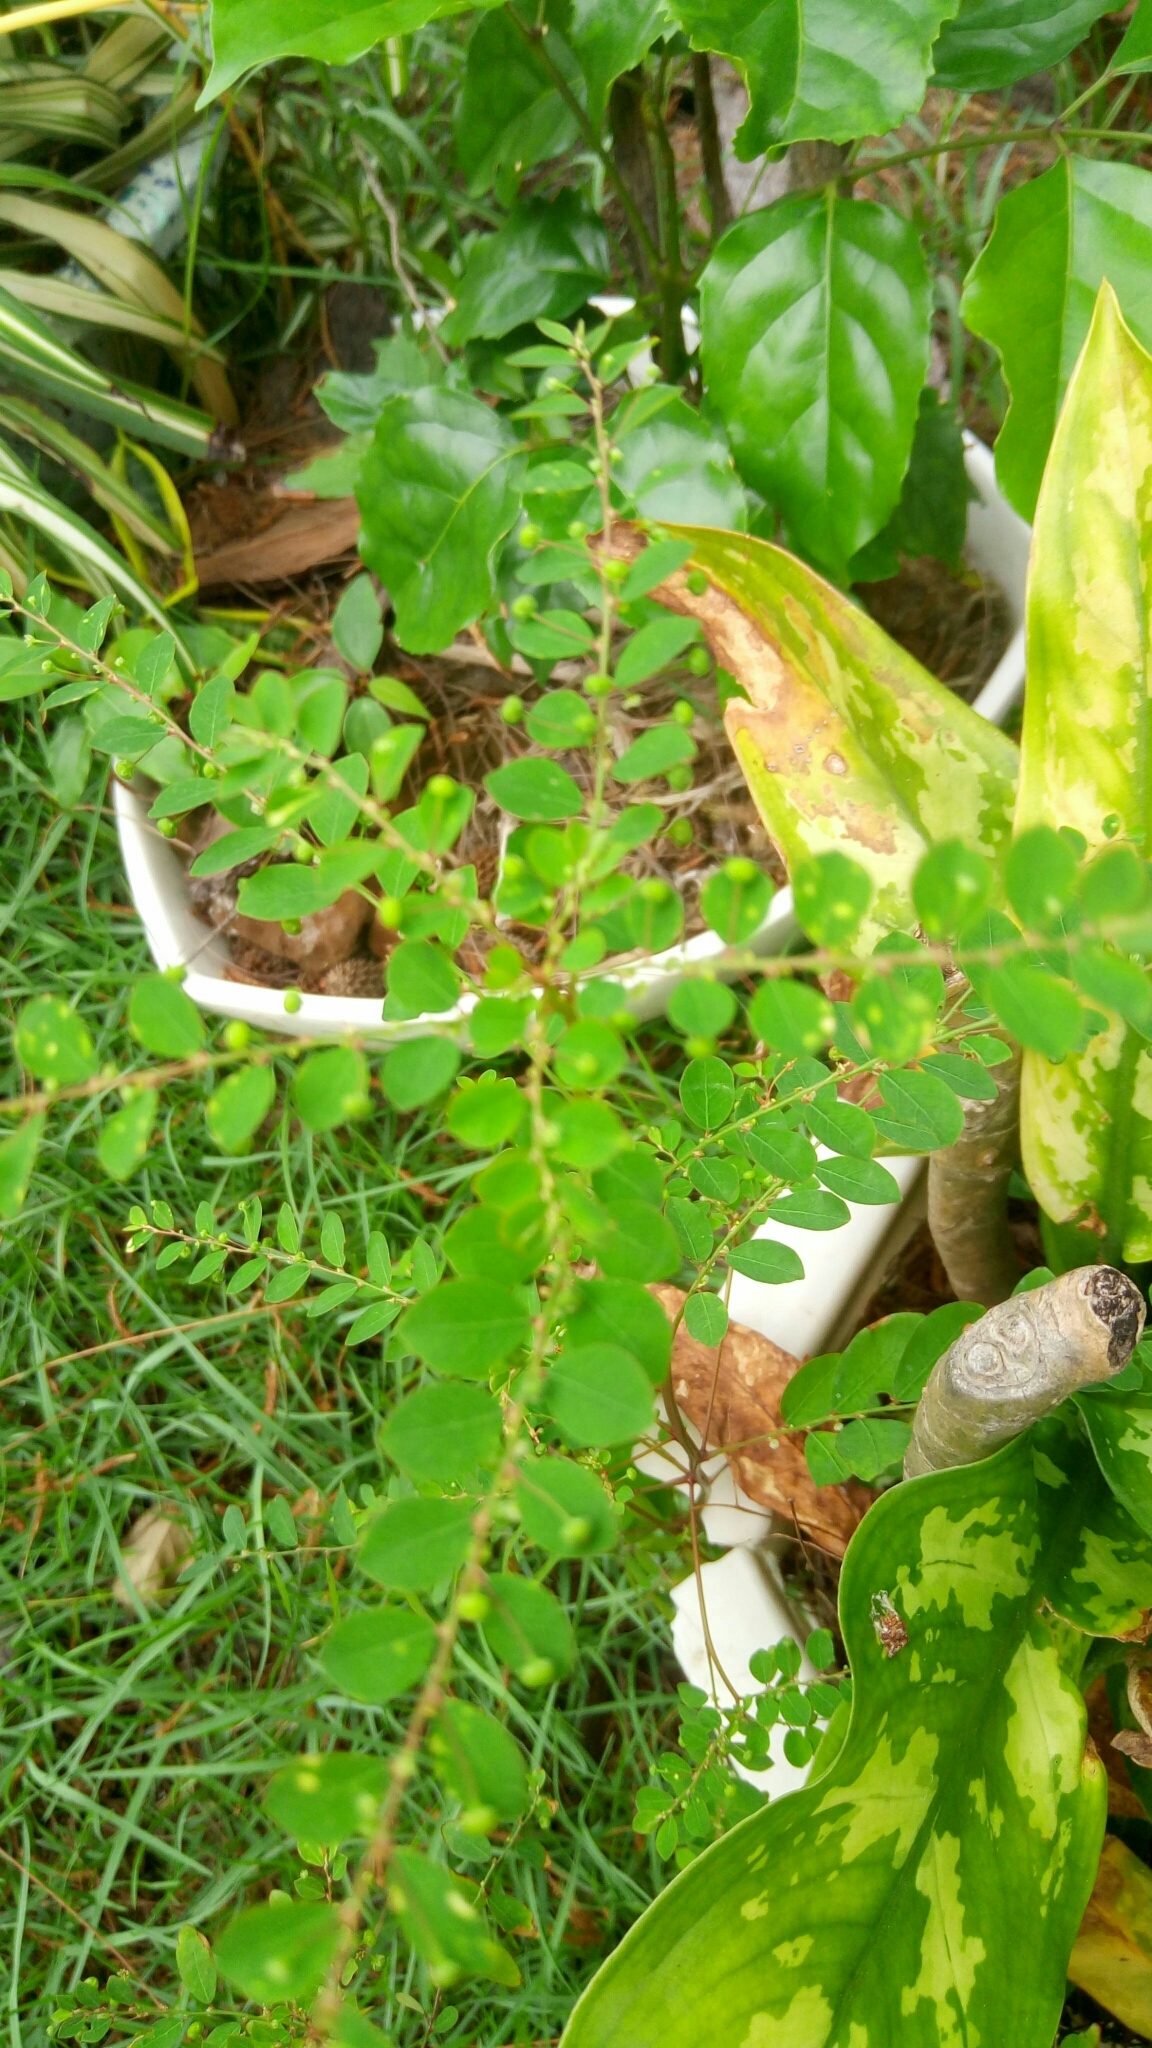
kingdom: Plantae
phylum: Tracheophyta
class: Magnoliopsida
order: Malpighiales
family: Phyllanthaceae
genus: Phyllanthus
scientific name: Phyllanthus tenellus
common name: Mascarene island leaf-flower
